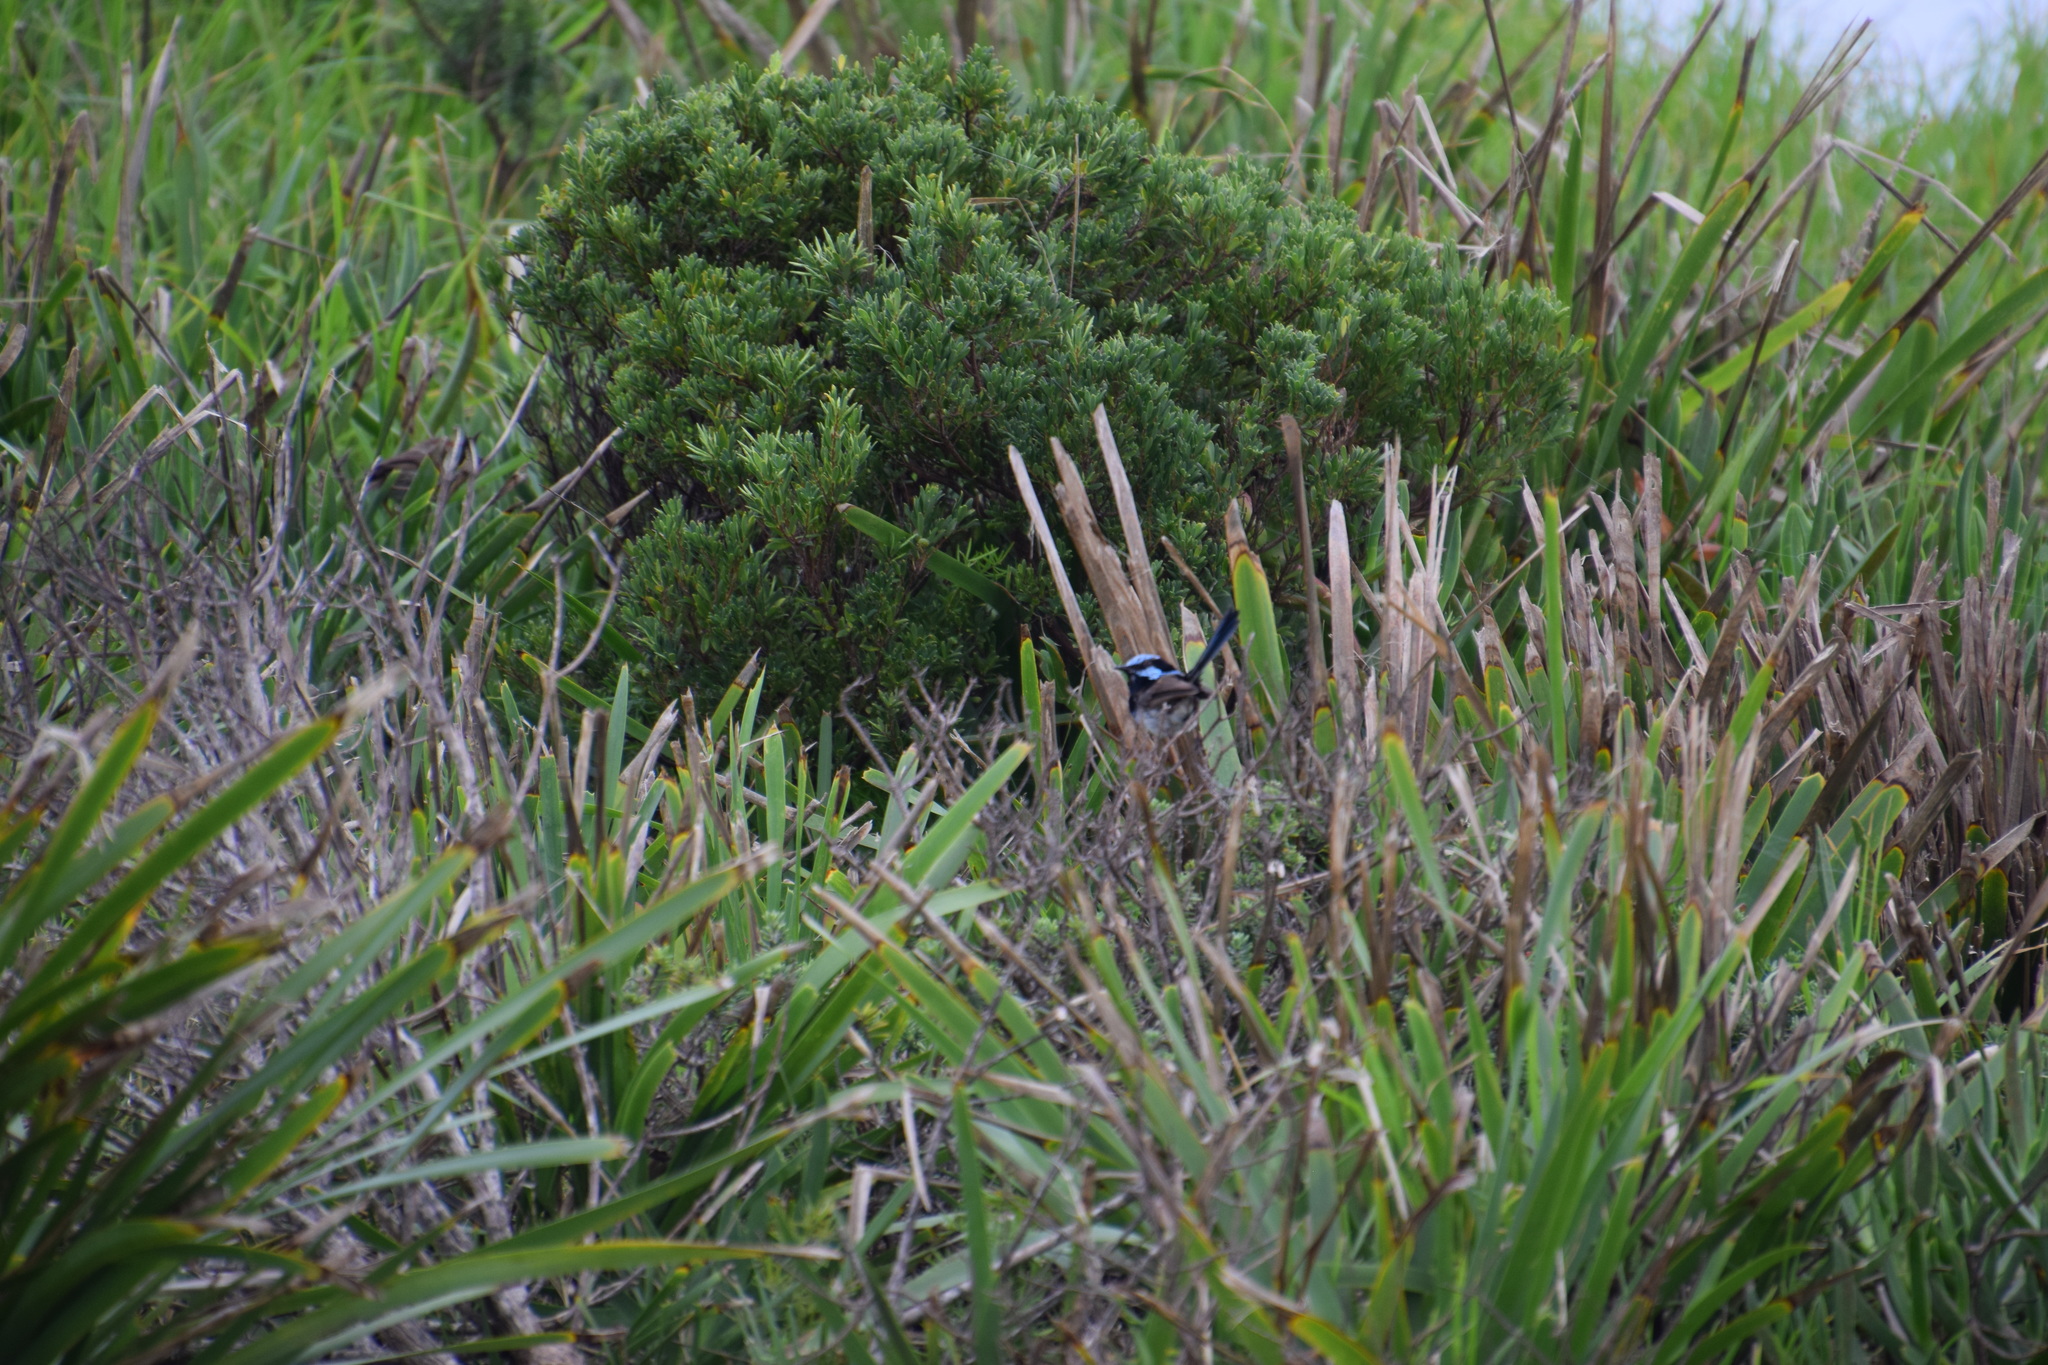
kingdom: Animalia
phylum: Chordata
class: Aves
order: Passeriformes
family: Maluridae
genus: Malurus
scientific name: Malurus cyaneus
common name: Superb fairywren
